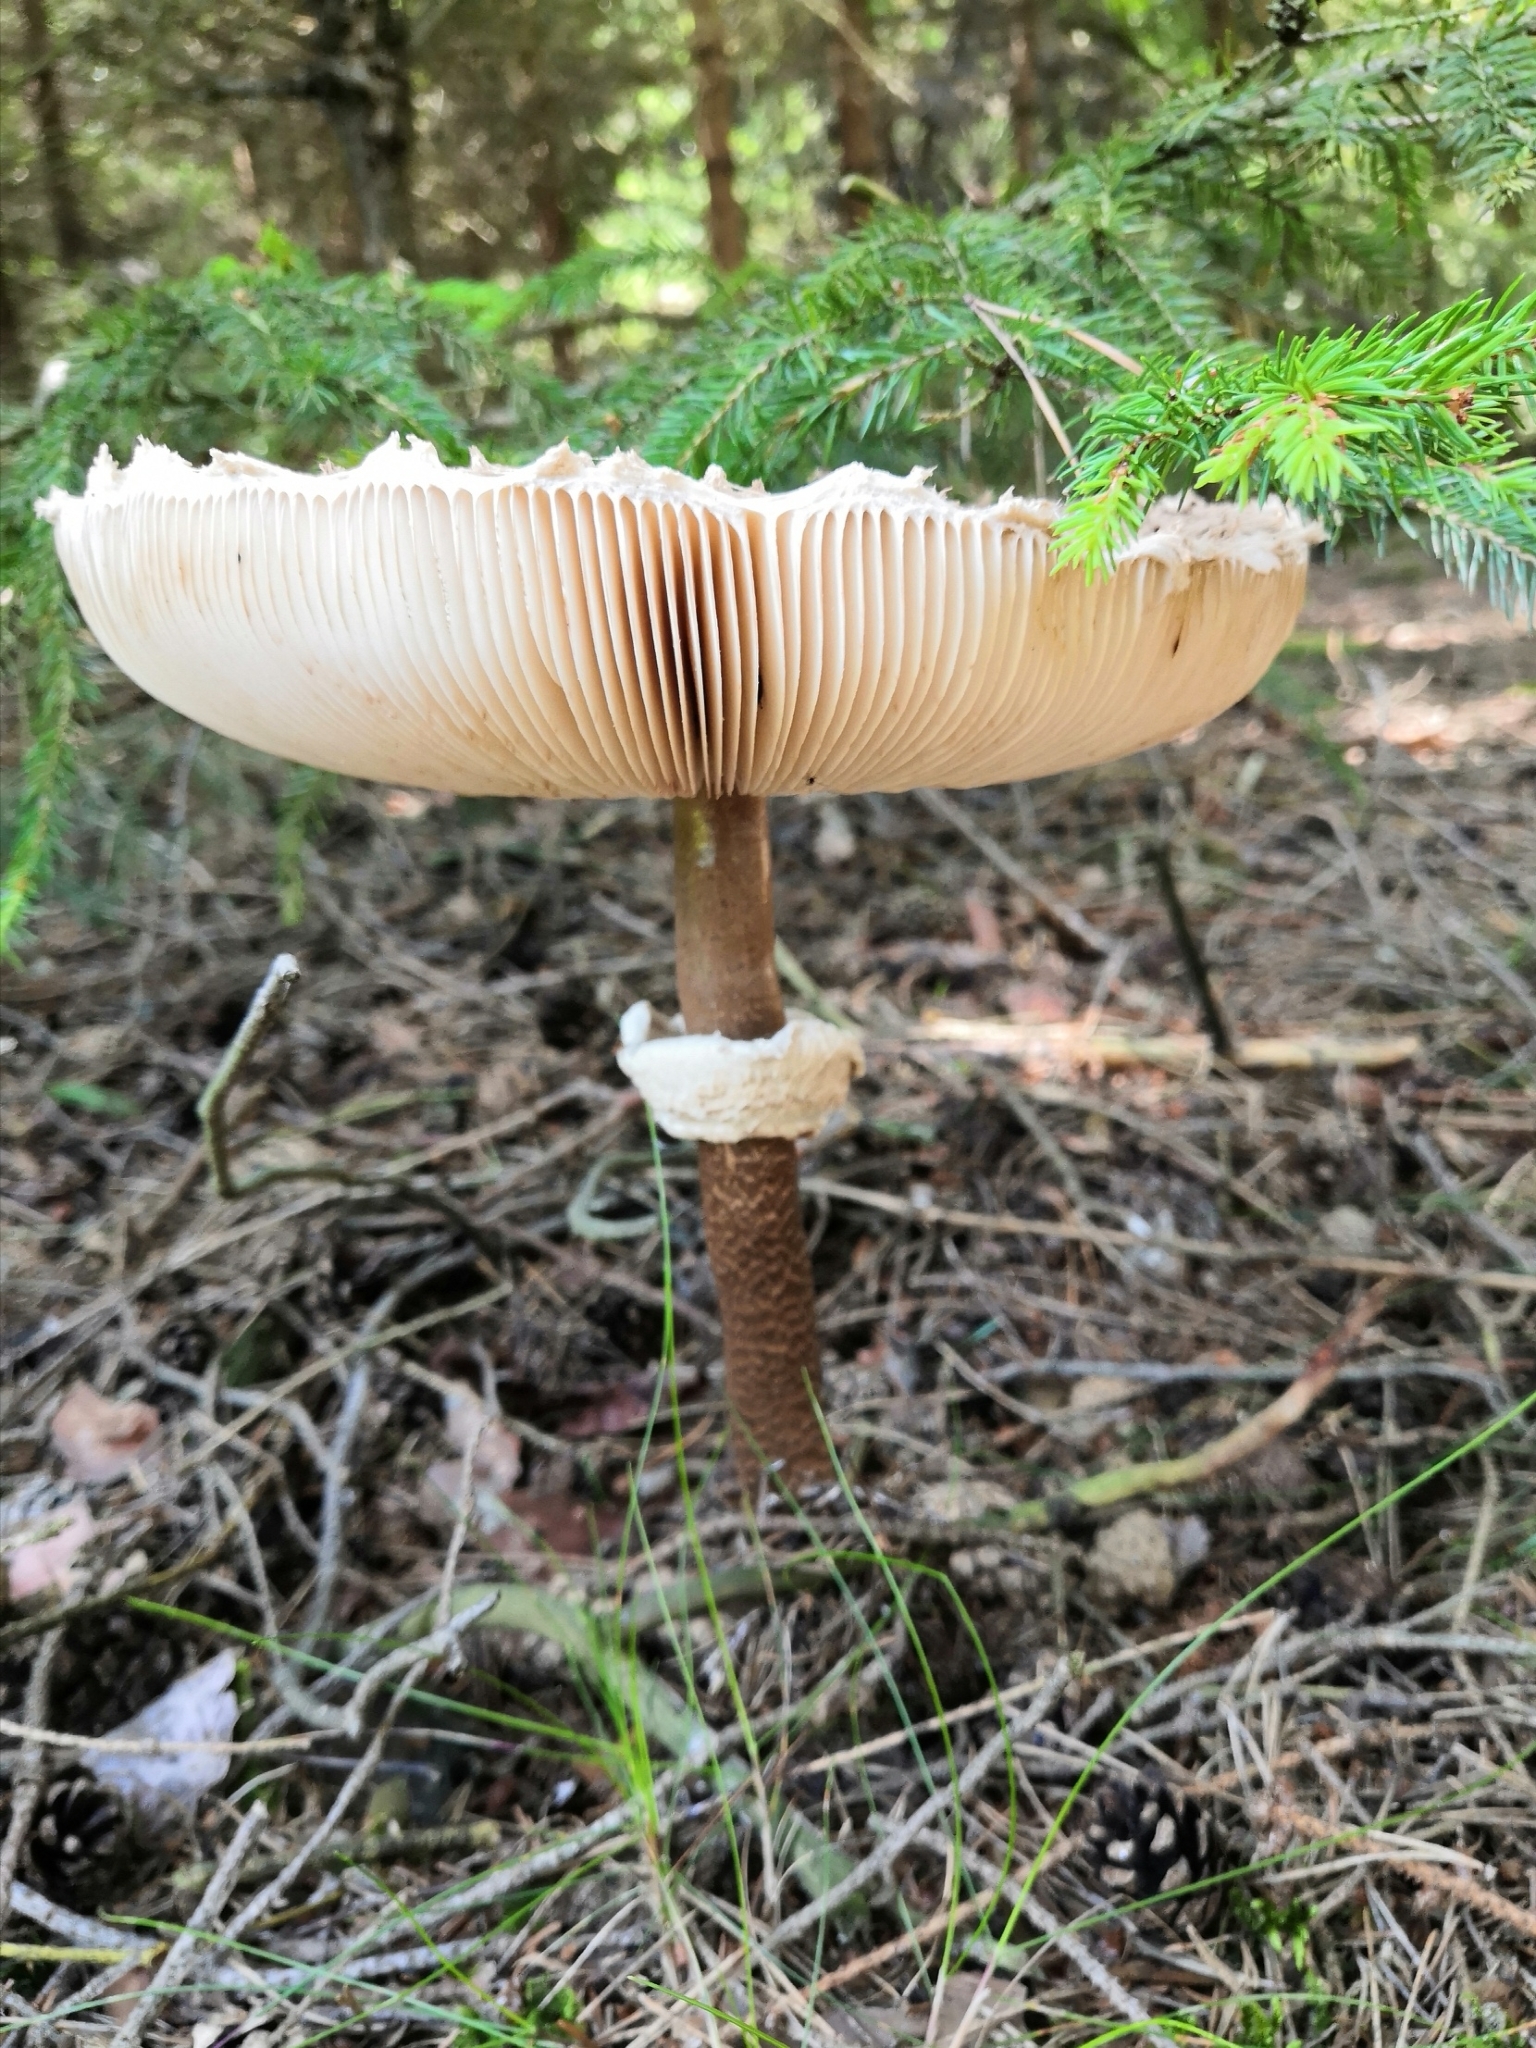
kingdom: Fungi
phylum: Basidiomycota
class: Agaricomycetes
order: Agaricales
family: Agaricaceae
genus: Macrolepiota
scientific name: Macrolepiota procera
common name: Parasol
